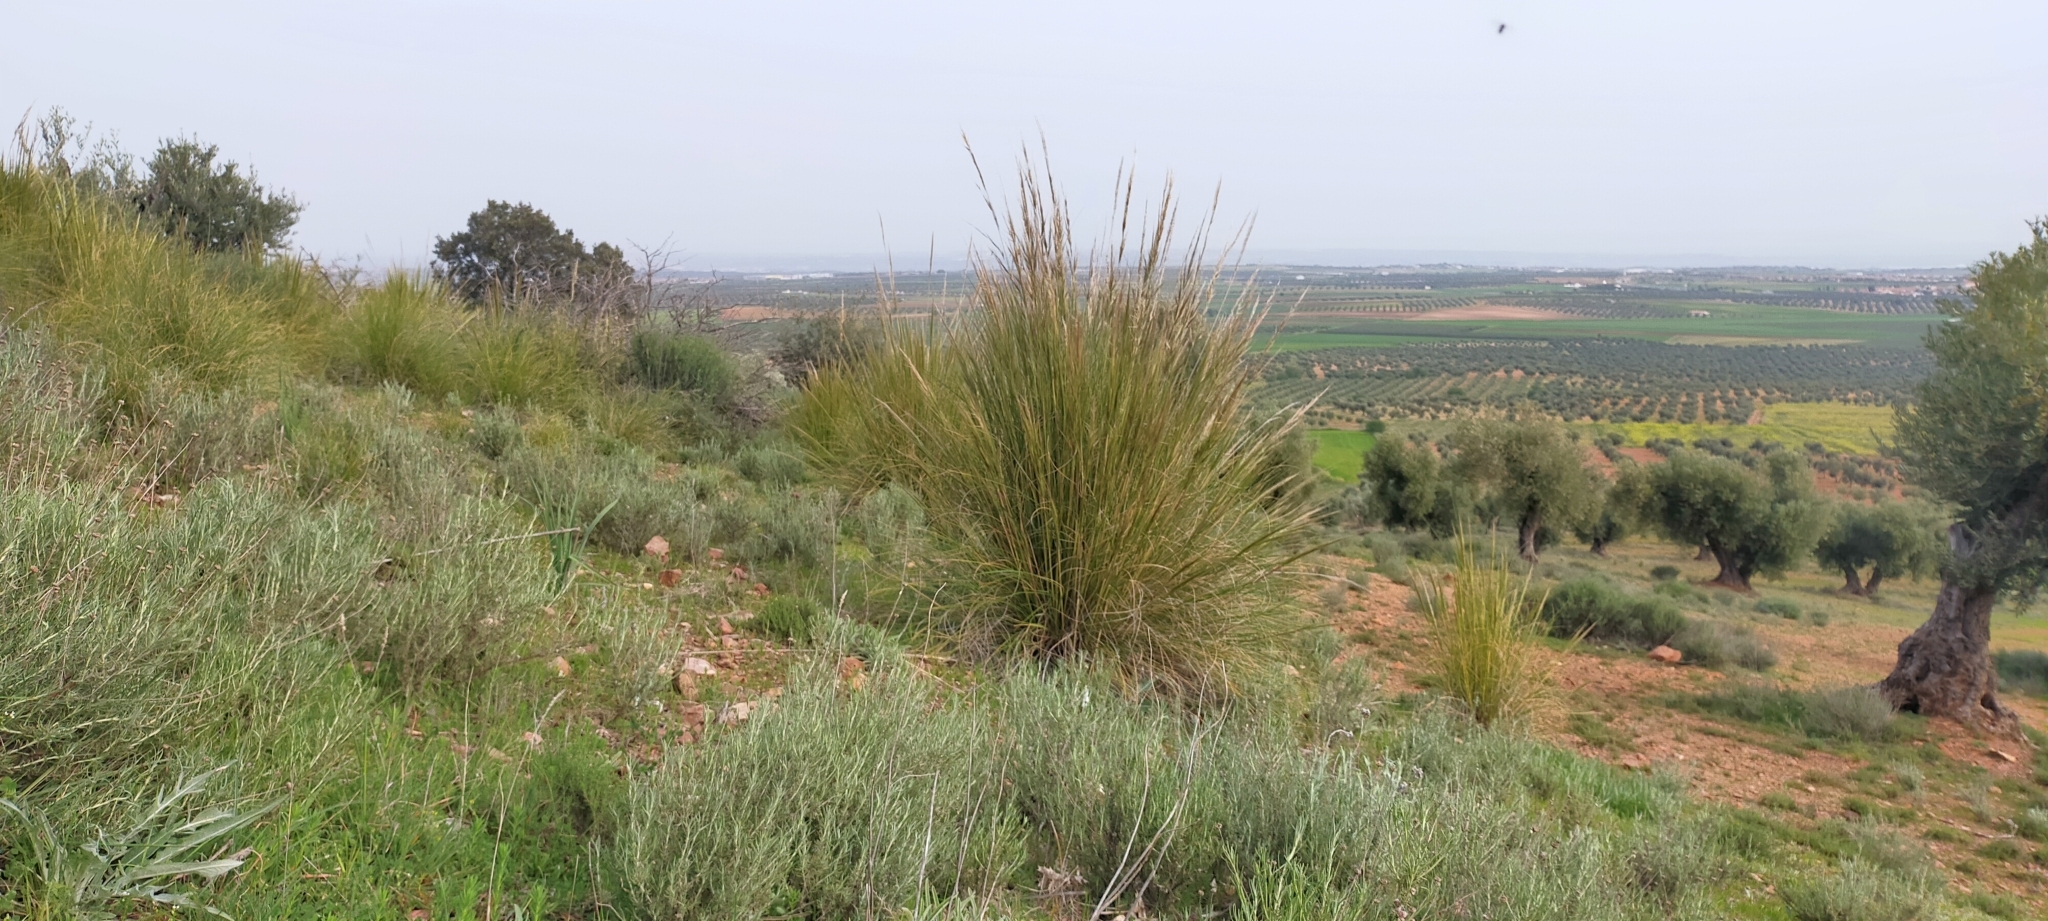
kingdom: Plantae
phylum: Tracheophyta
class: Liliopsida
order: Poales
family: Poaceae
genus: Macrochloa
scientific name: Macrochloa tenacissima
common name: Alfa grass
